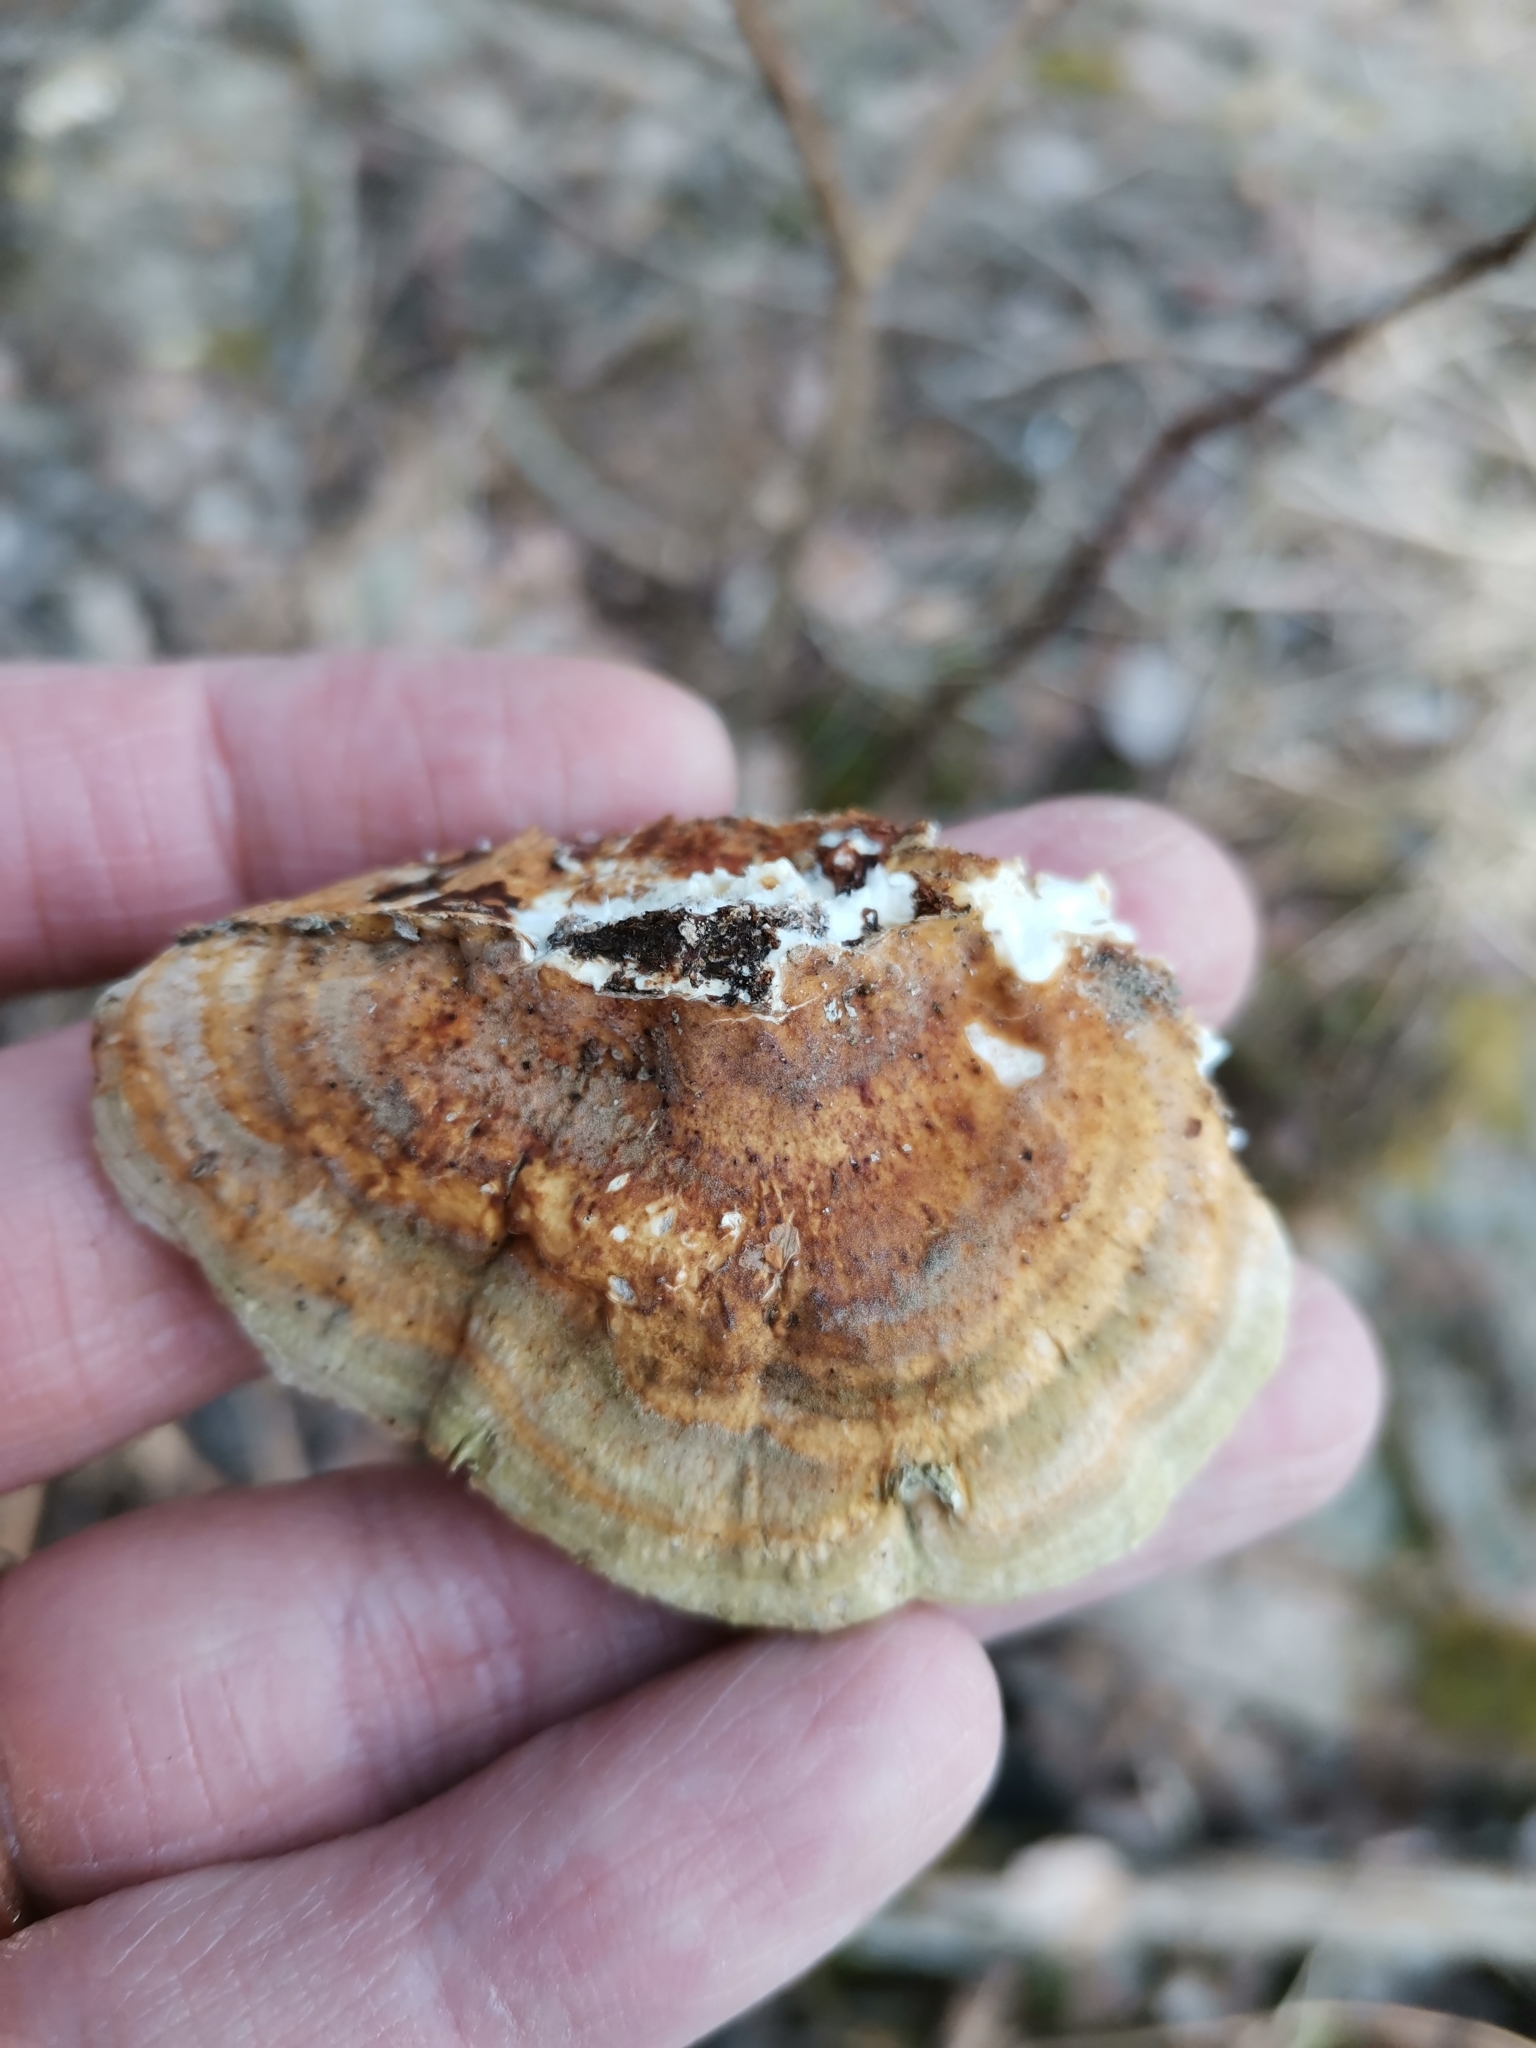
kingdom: Fungi
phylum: Basidiomycota
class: Agaricomycetes
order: Polyporales
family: Polyporaceae
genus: Trametes
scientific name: Trametes ochracea
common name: Ochre bracket
